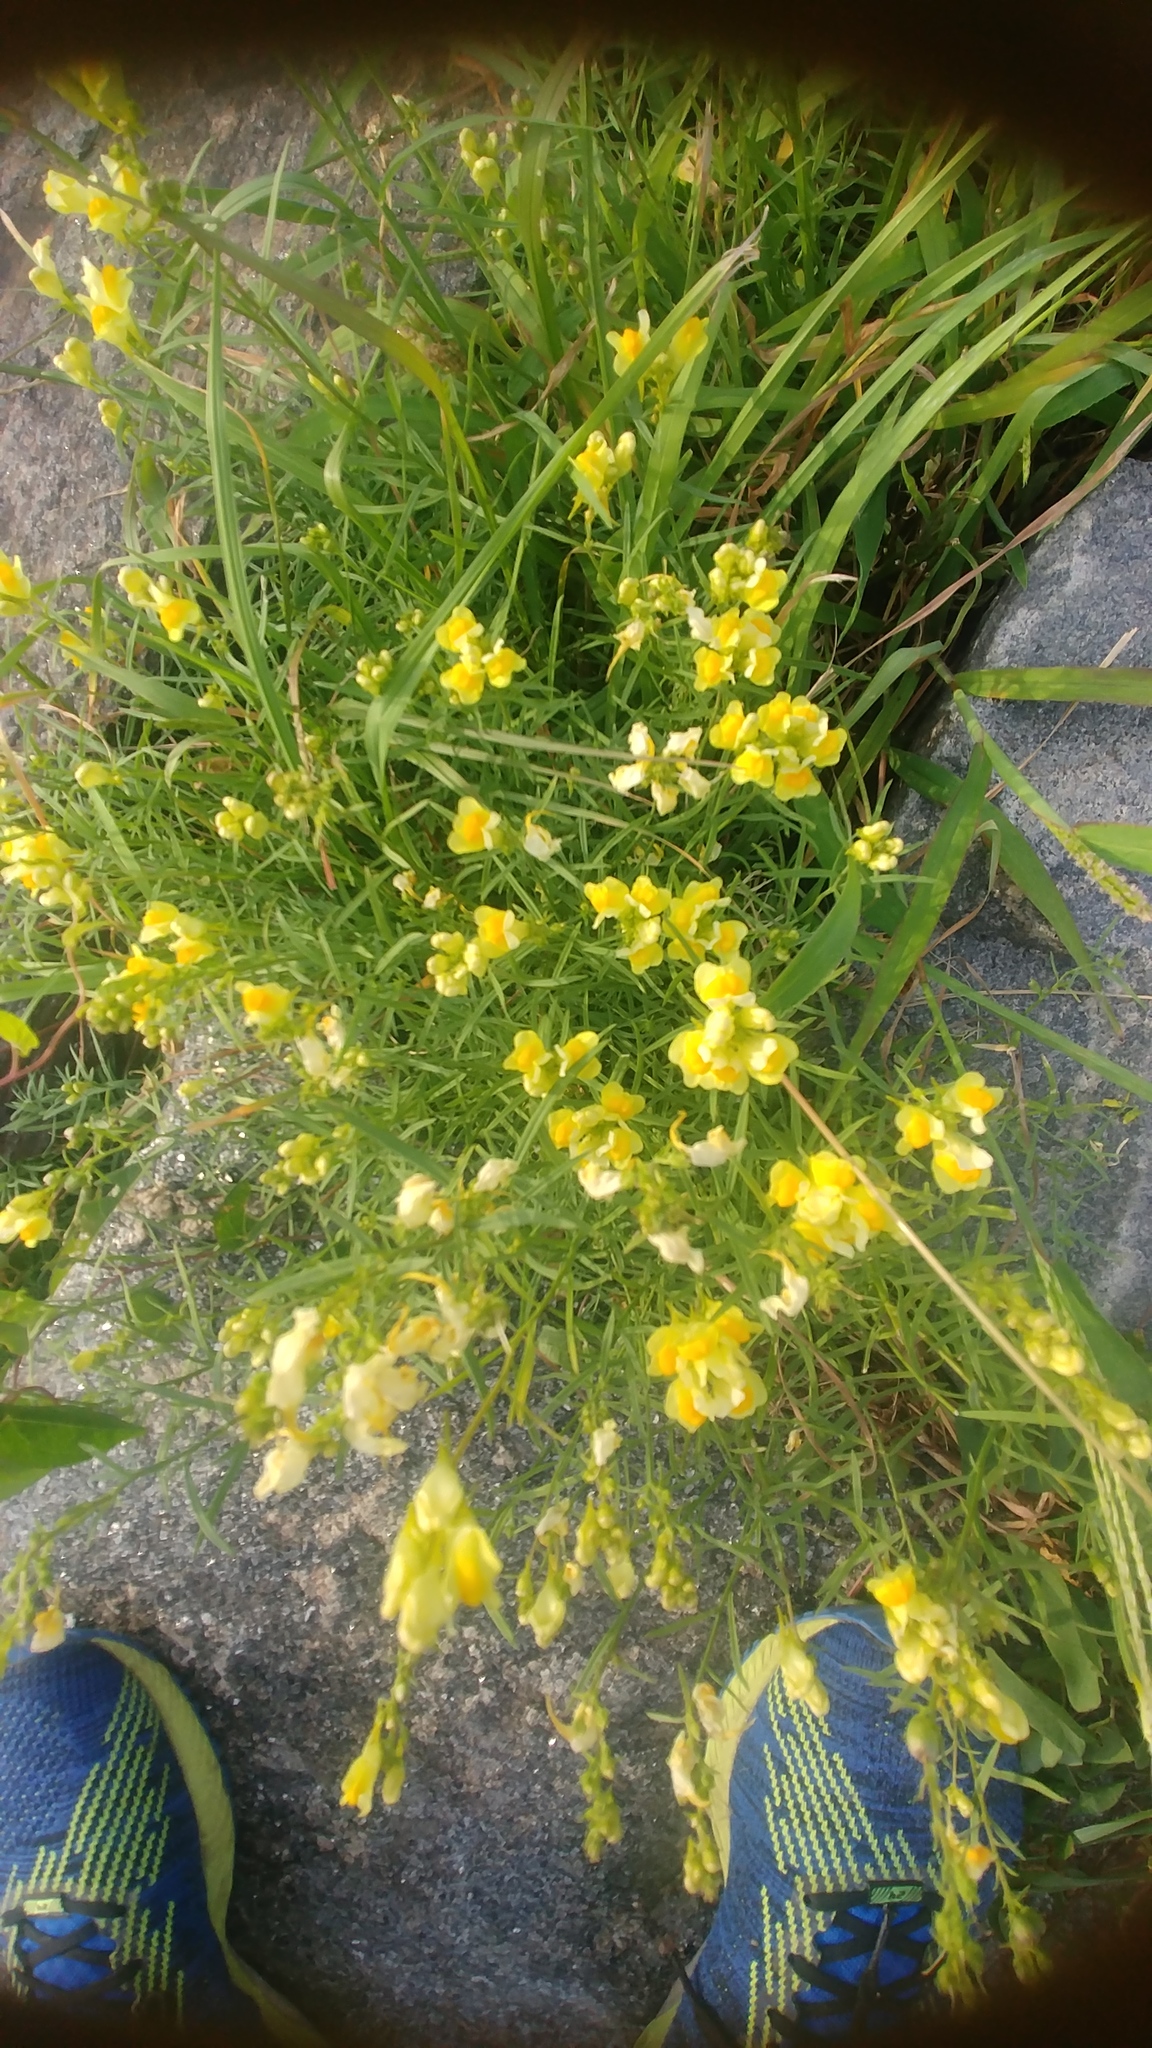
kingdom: Plantae
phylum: Tracheophyta
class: Magnoliopsida
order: Lamiales
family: Plantaginaceae
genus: Linaria
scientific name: Linaria vulgaris
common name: Butter and eggs
